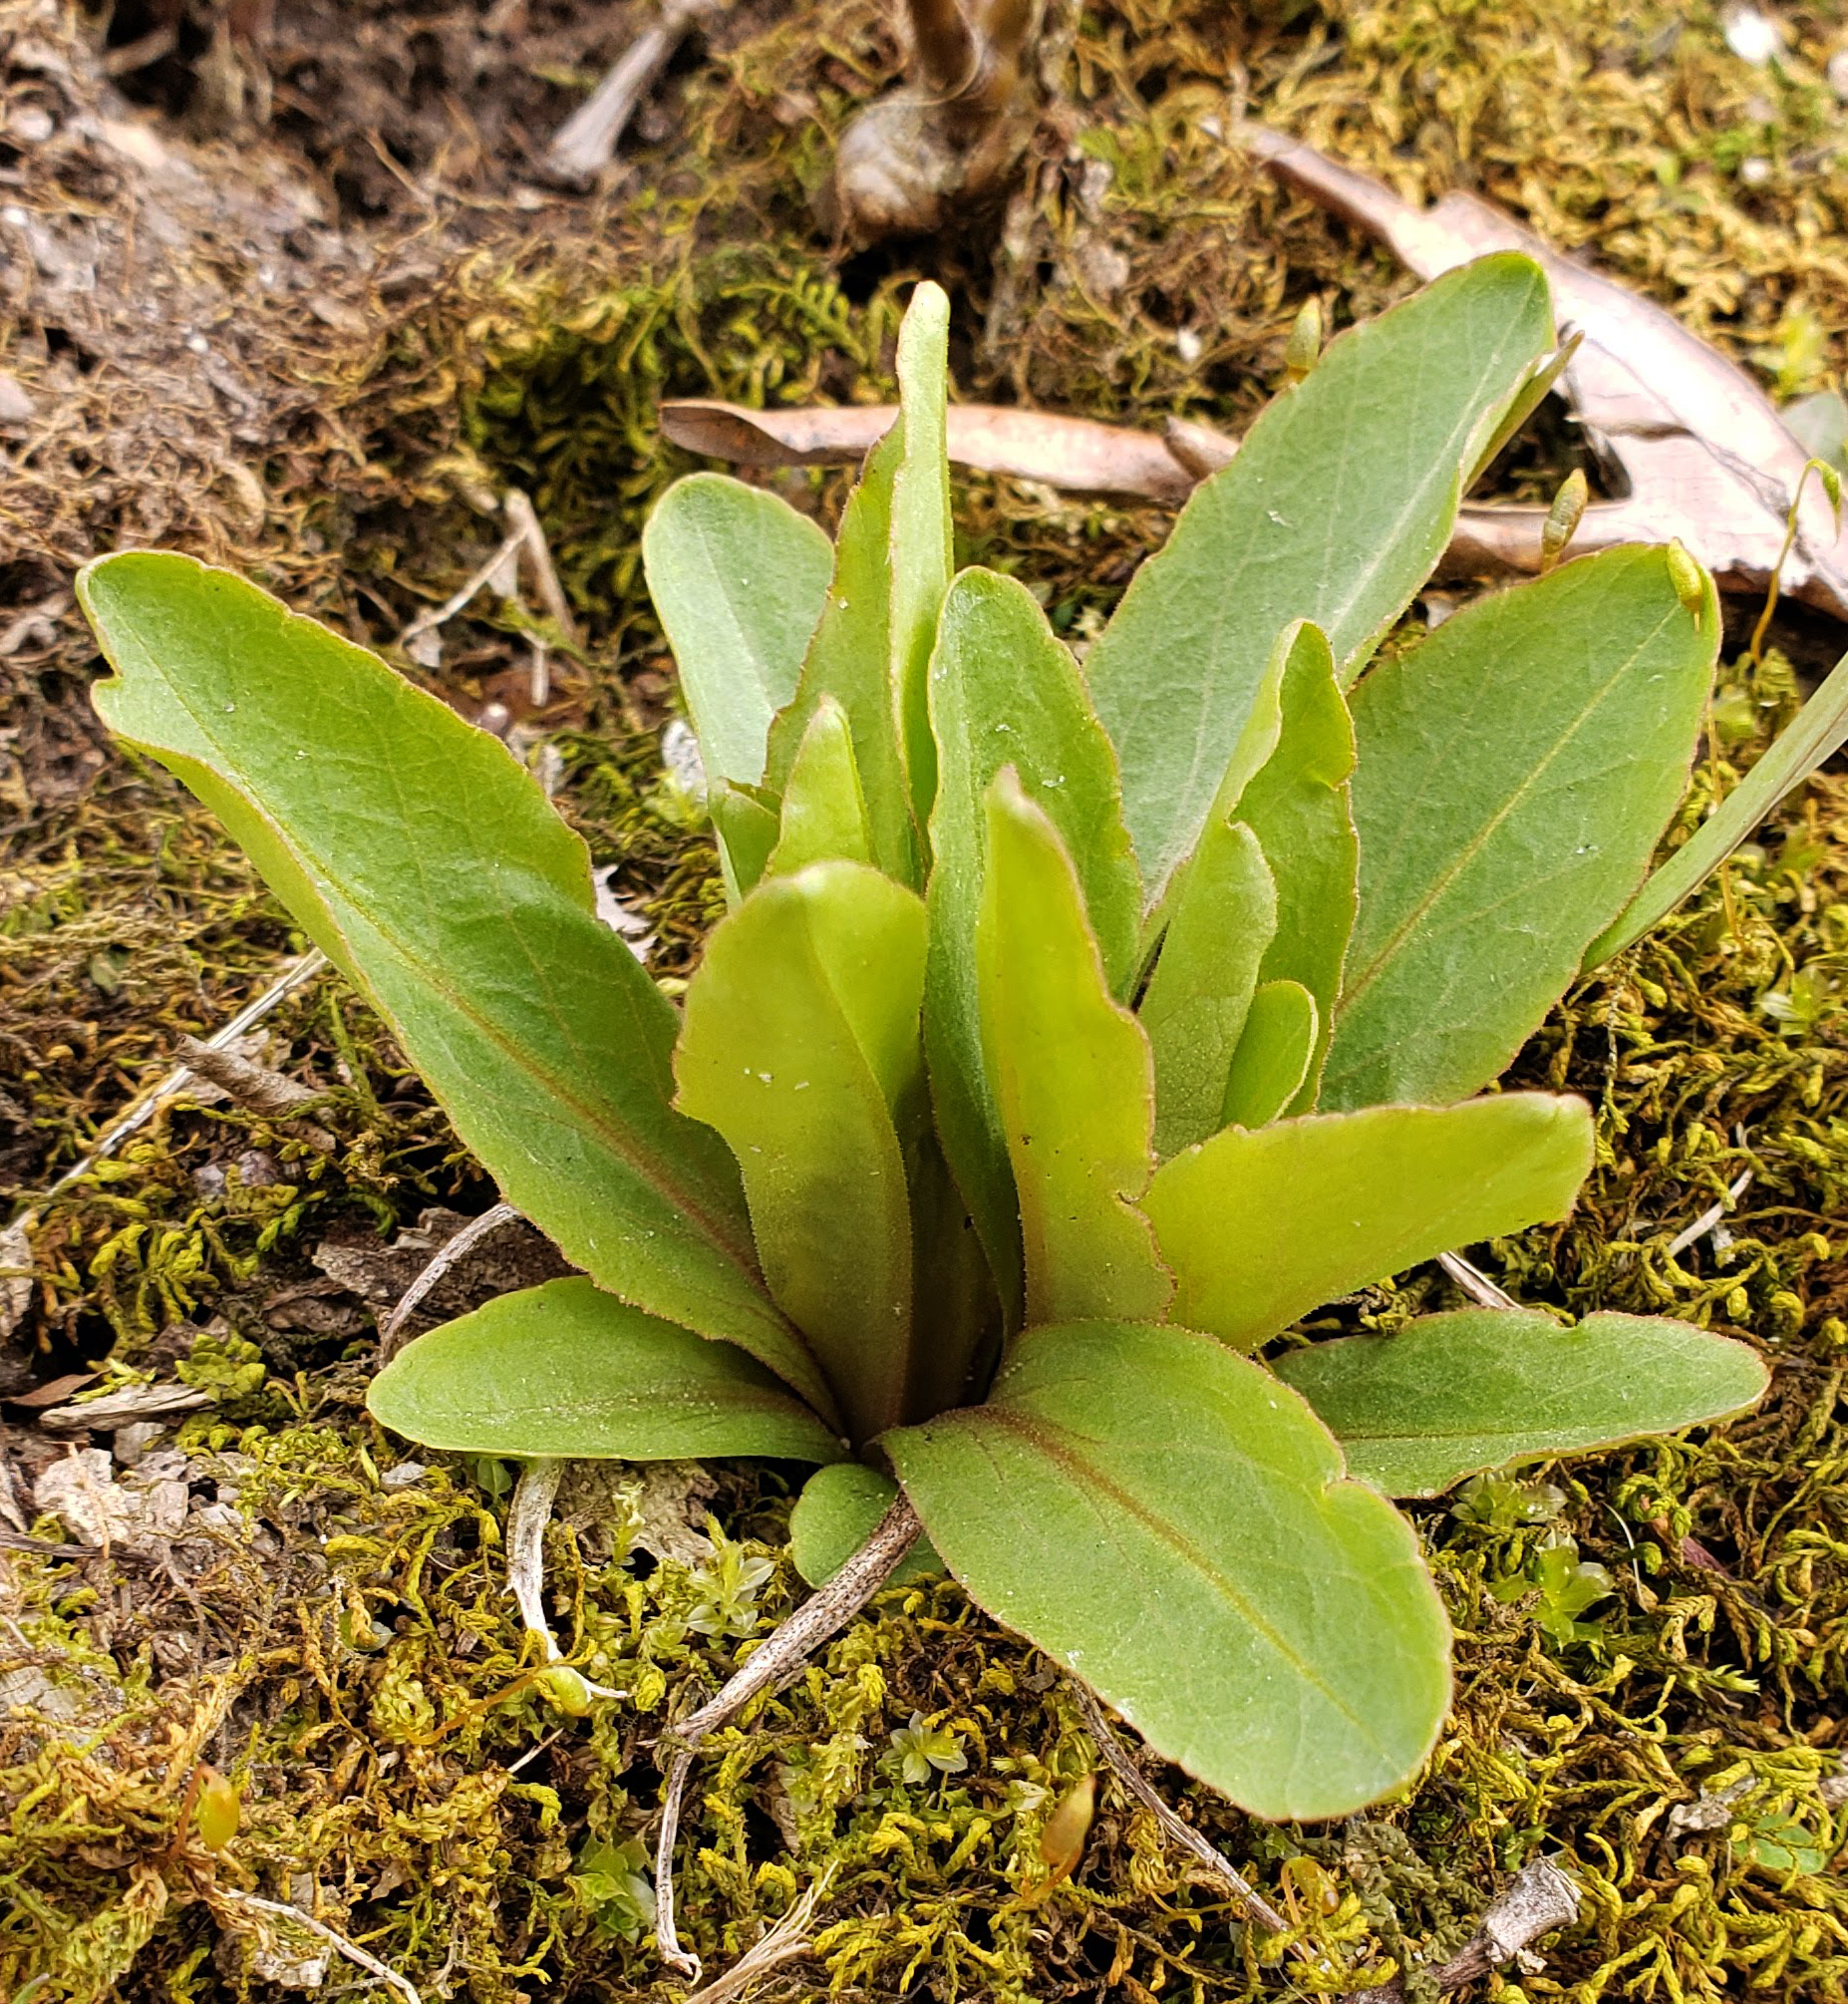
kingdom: Plantae
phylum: Tracheophyta
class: Magnoliopsida
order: Ericales
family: Primulaceae
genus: Dodecatheon
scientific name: Dodecatheon meadia
